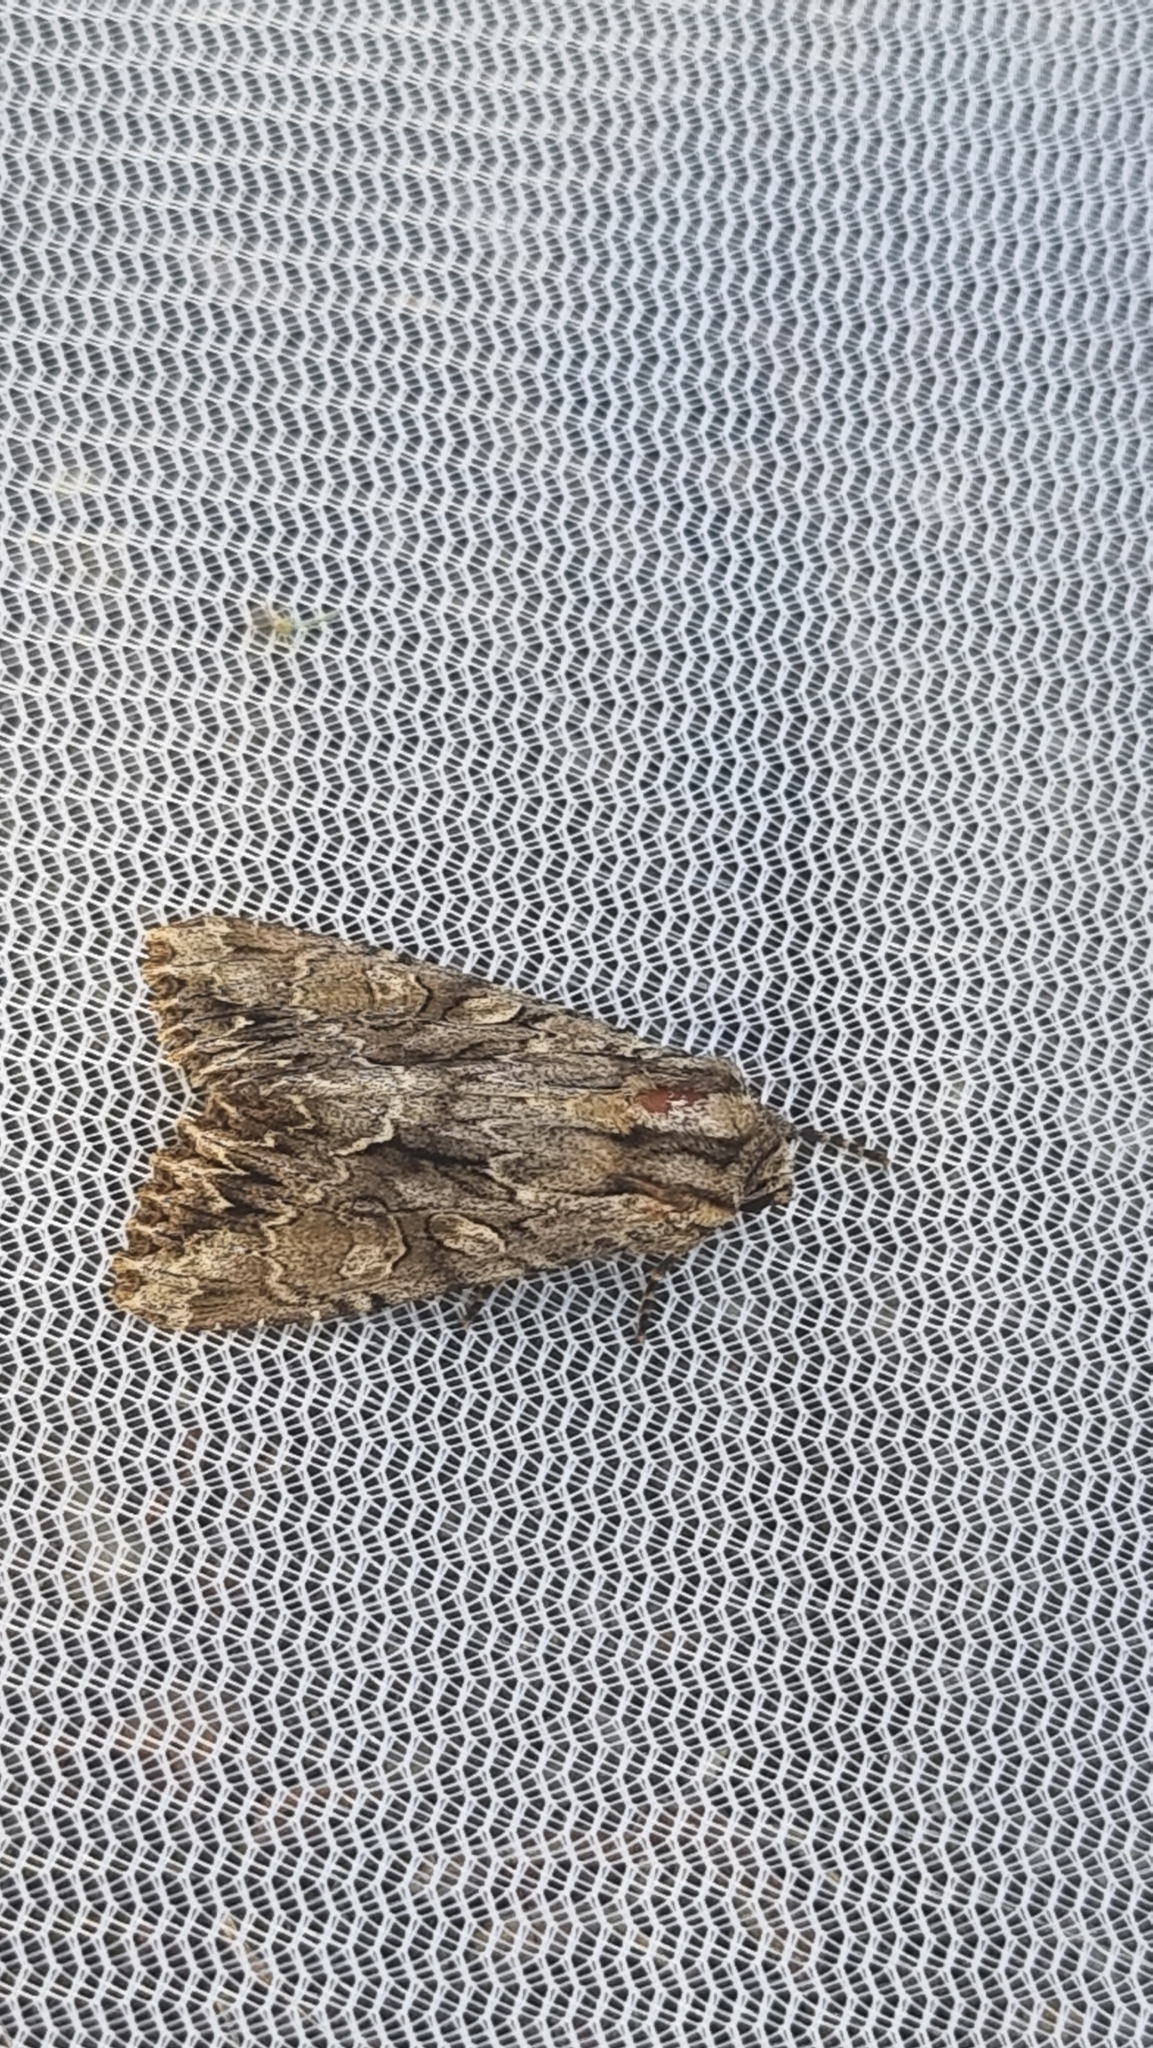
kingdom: Animalia
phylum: Arthropoda
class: Insecta
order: Lepidoptera
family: Noctuidae
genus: Apamea
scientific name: Apamea monoglypha
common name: Dark arches
